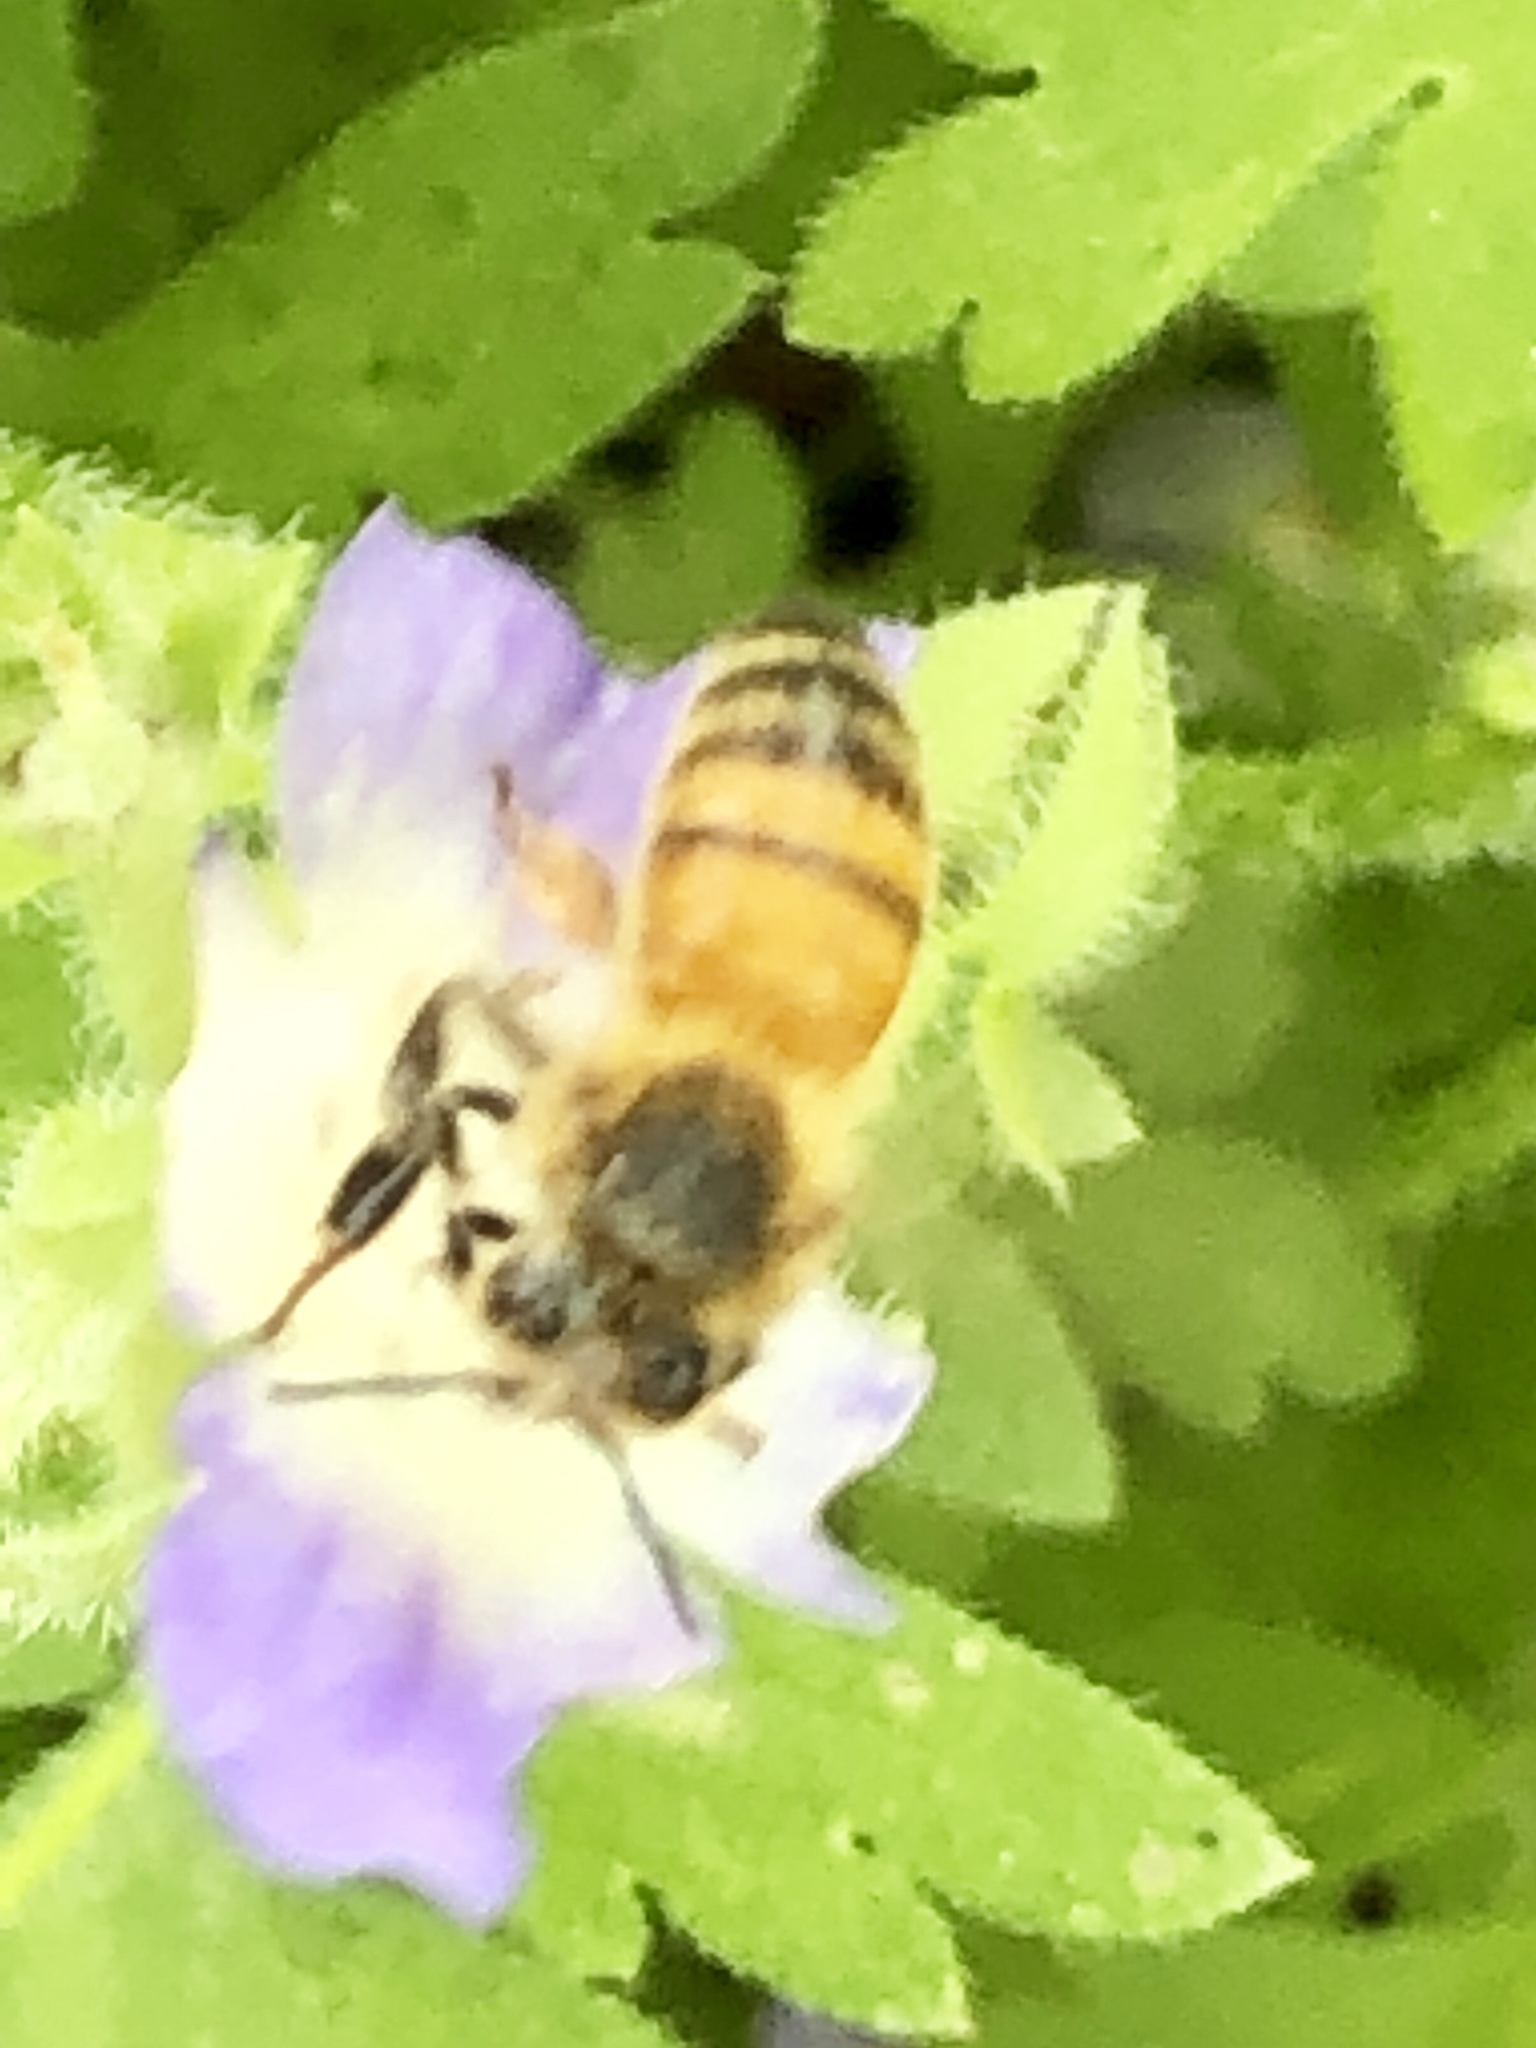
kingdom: Animalia
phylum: Arthropoda
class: Insecta
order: Hymenoptera
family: Apidae
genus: Apis
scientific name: Apis mellifera
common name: Honey bee
